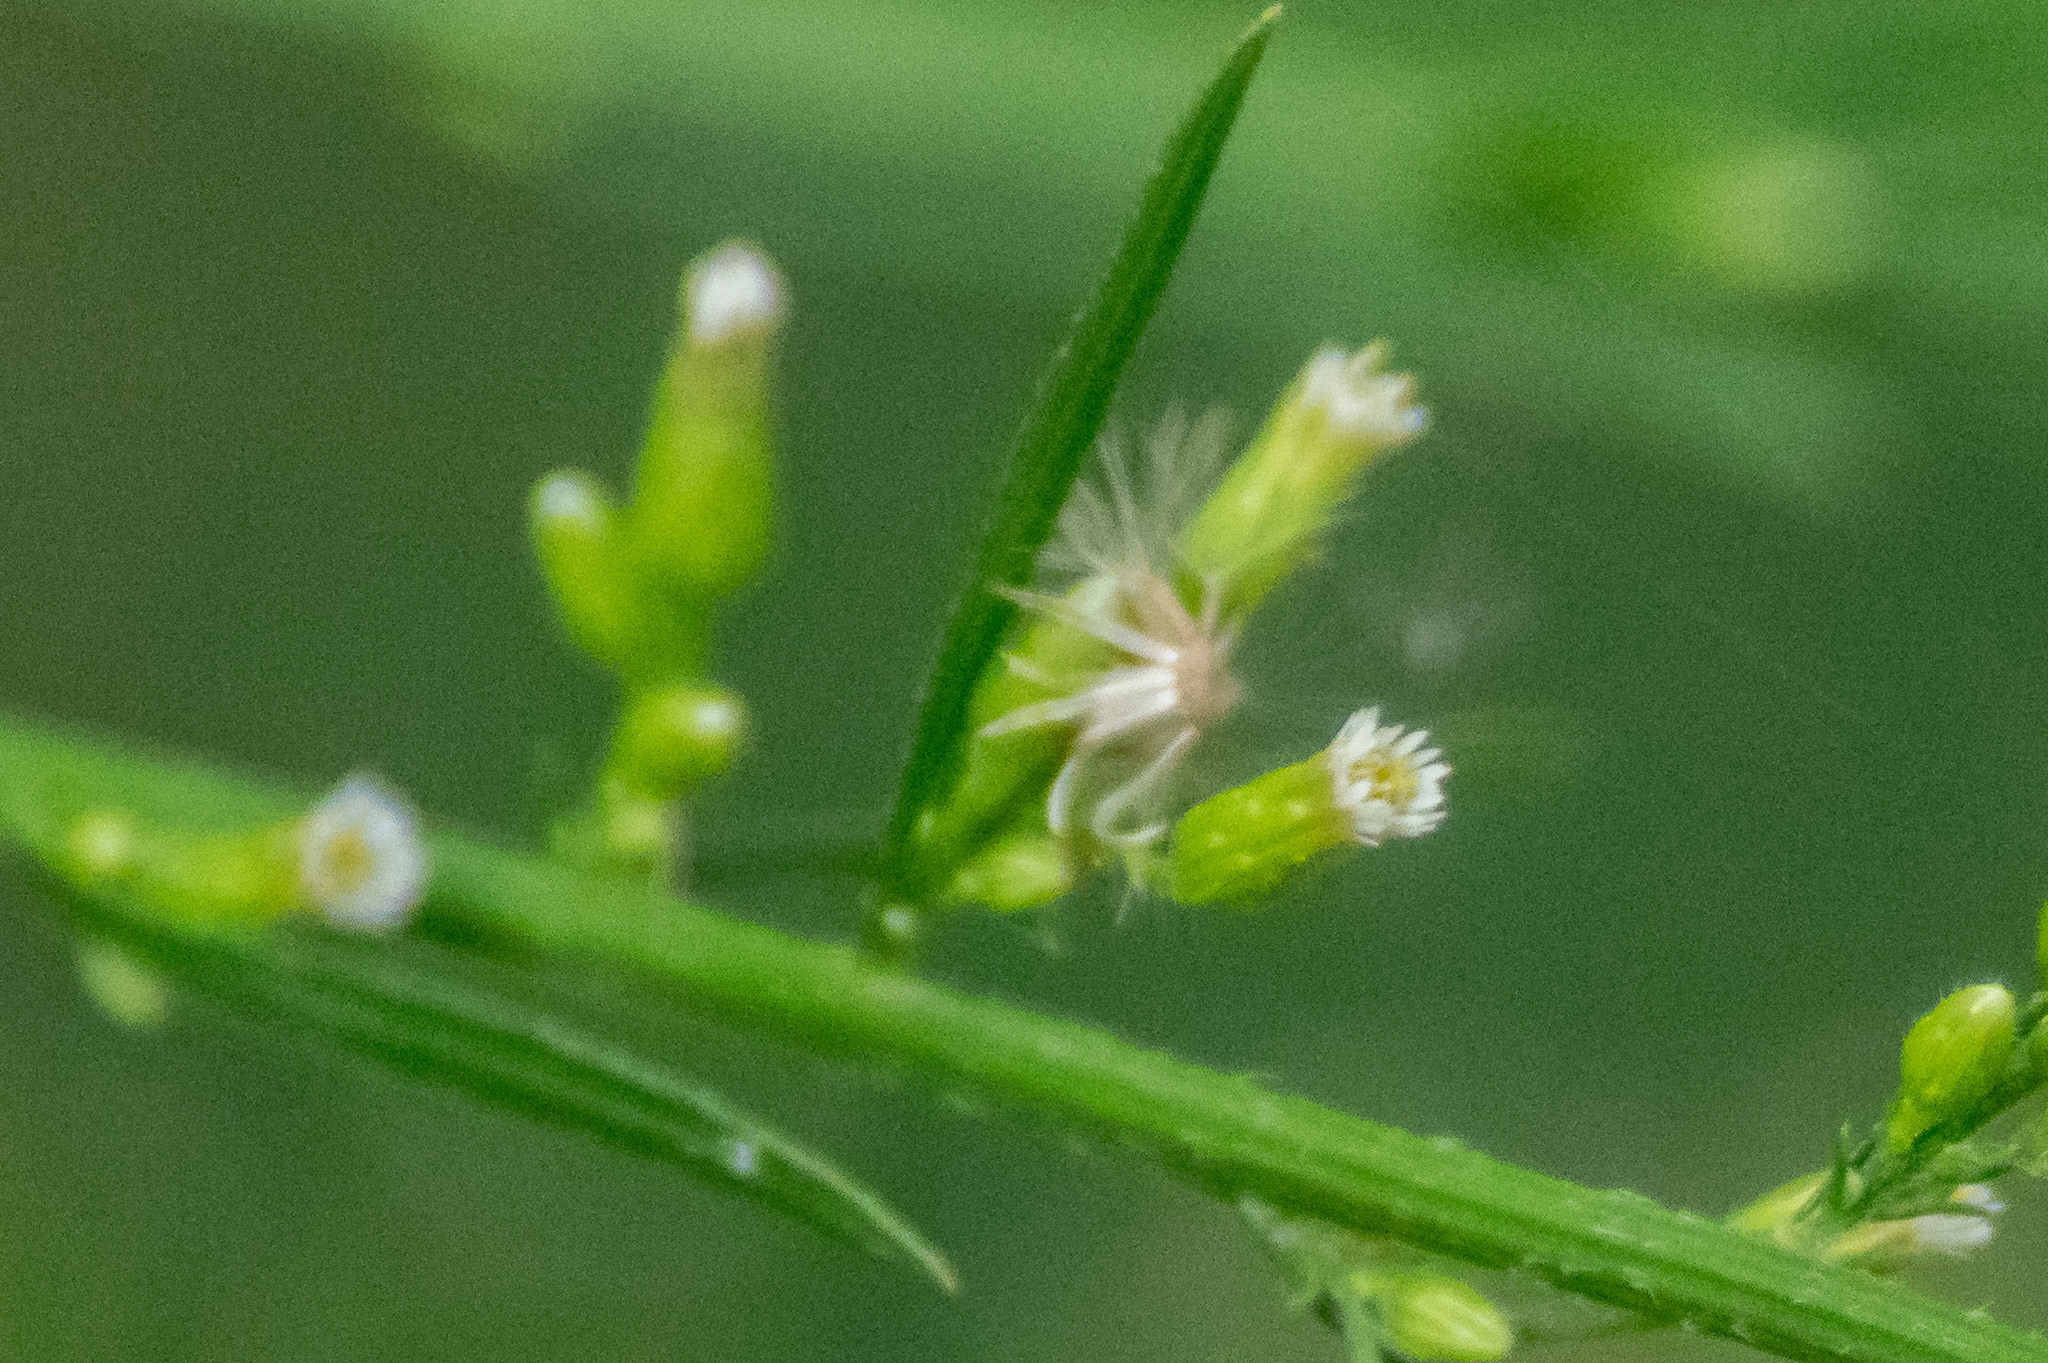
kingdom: Plantae
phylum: Tracheophyta
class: Magnoliopsida
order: Asterales
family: Asteraceae
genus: Erigeron
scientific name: Erigeron canadensis
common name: Canadian fleabane
